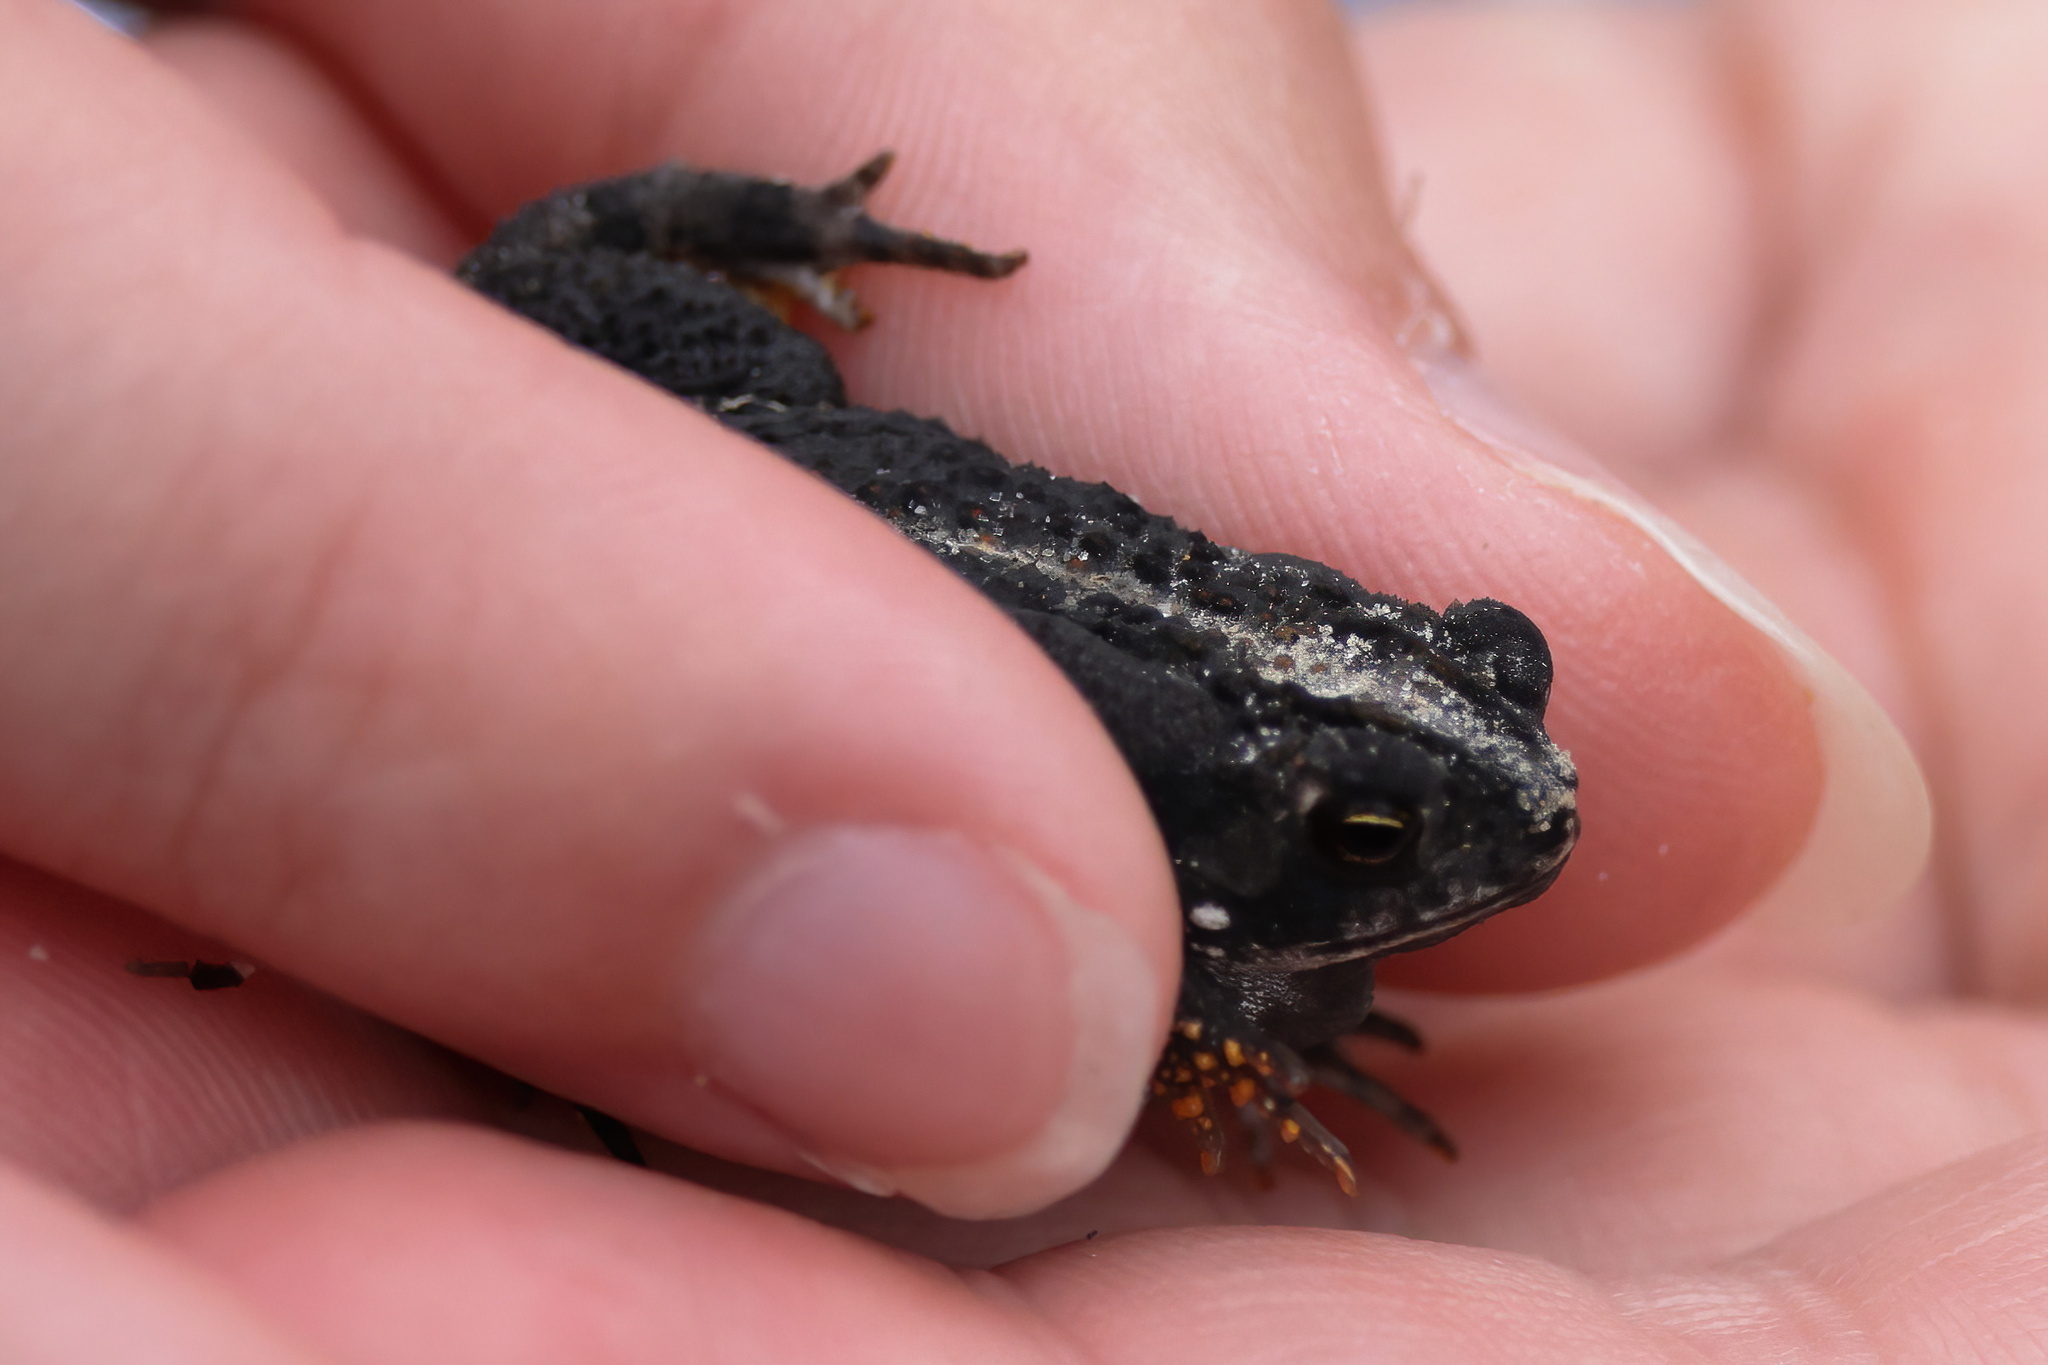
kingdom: Animalia
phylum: Chordata
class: Amphibia
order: Anura
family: Bufonidae
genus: Anaxyrus
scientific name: Anaxyrus quercicus
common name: Oak toad
